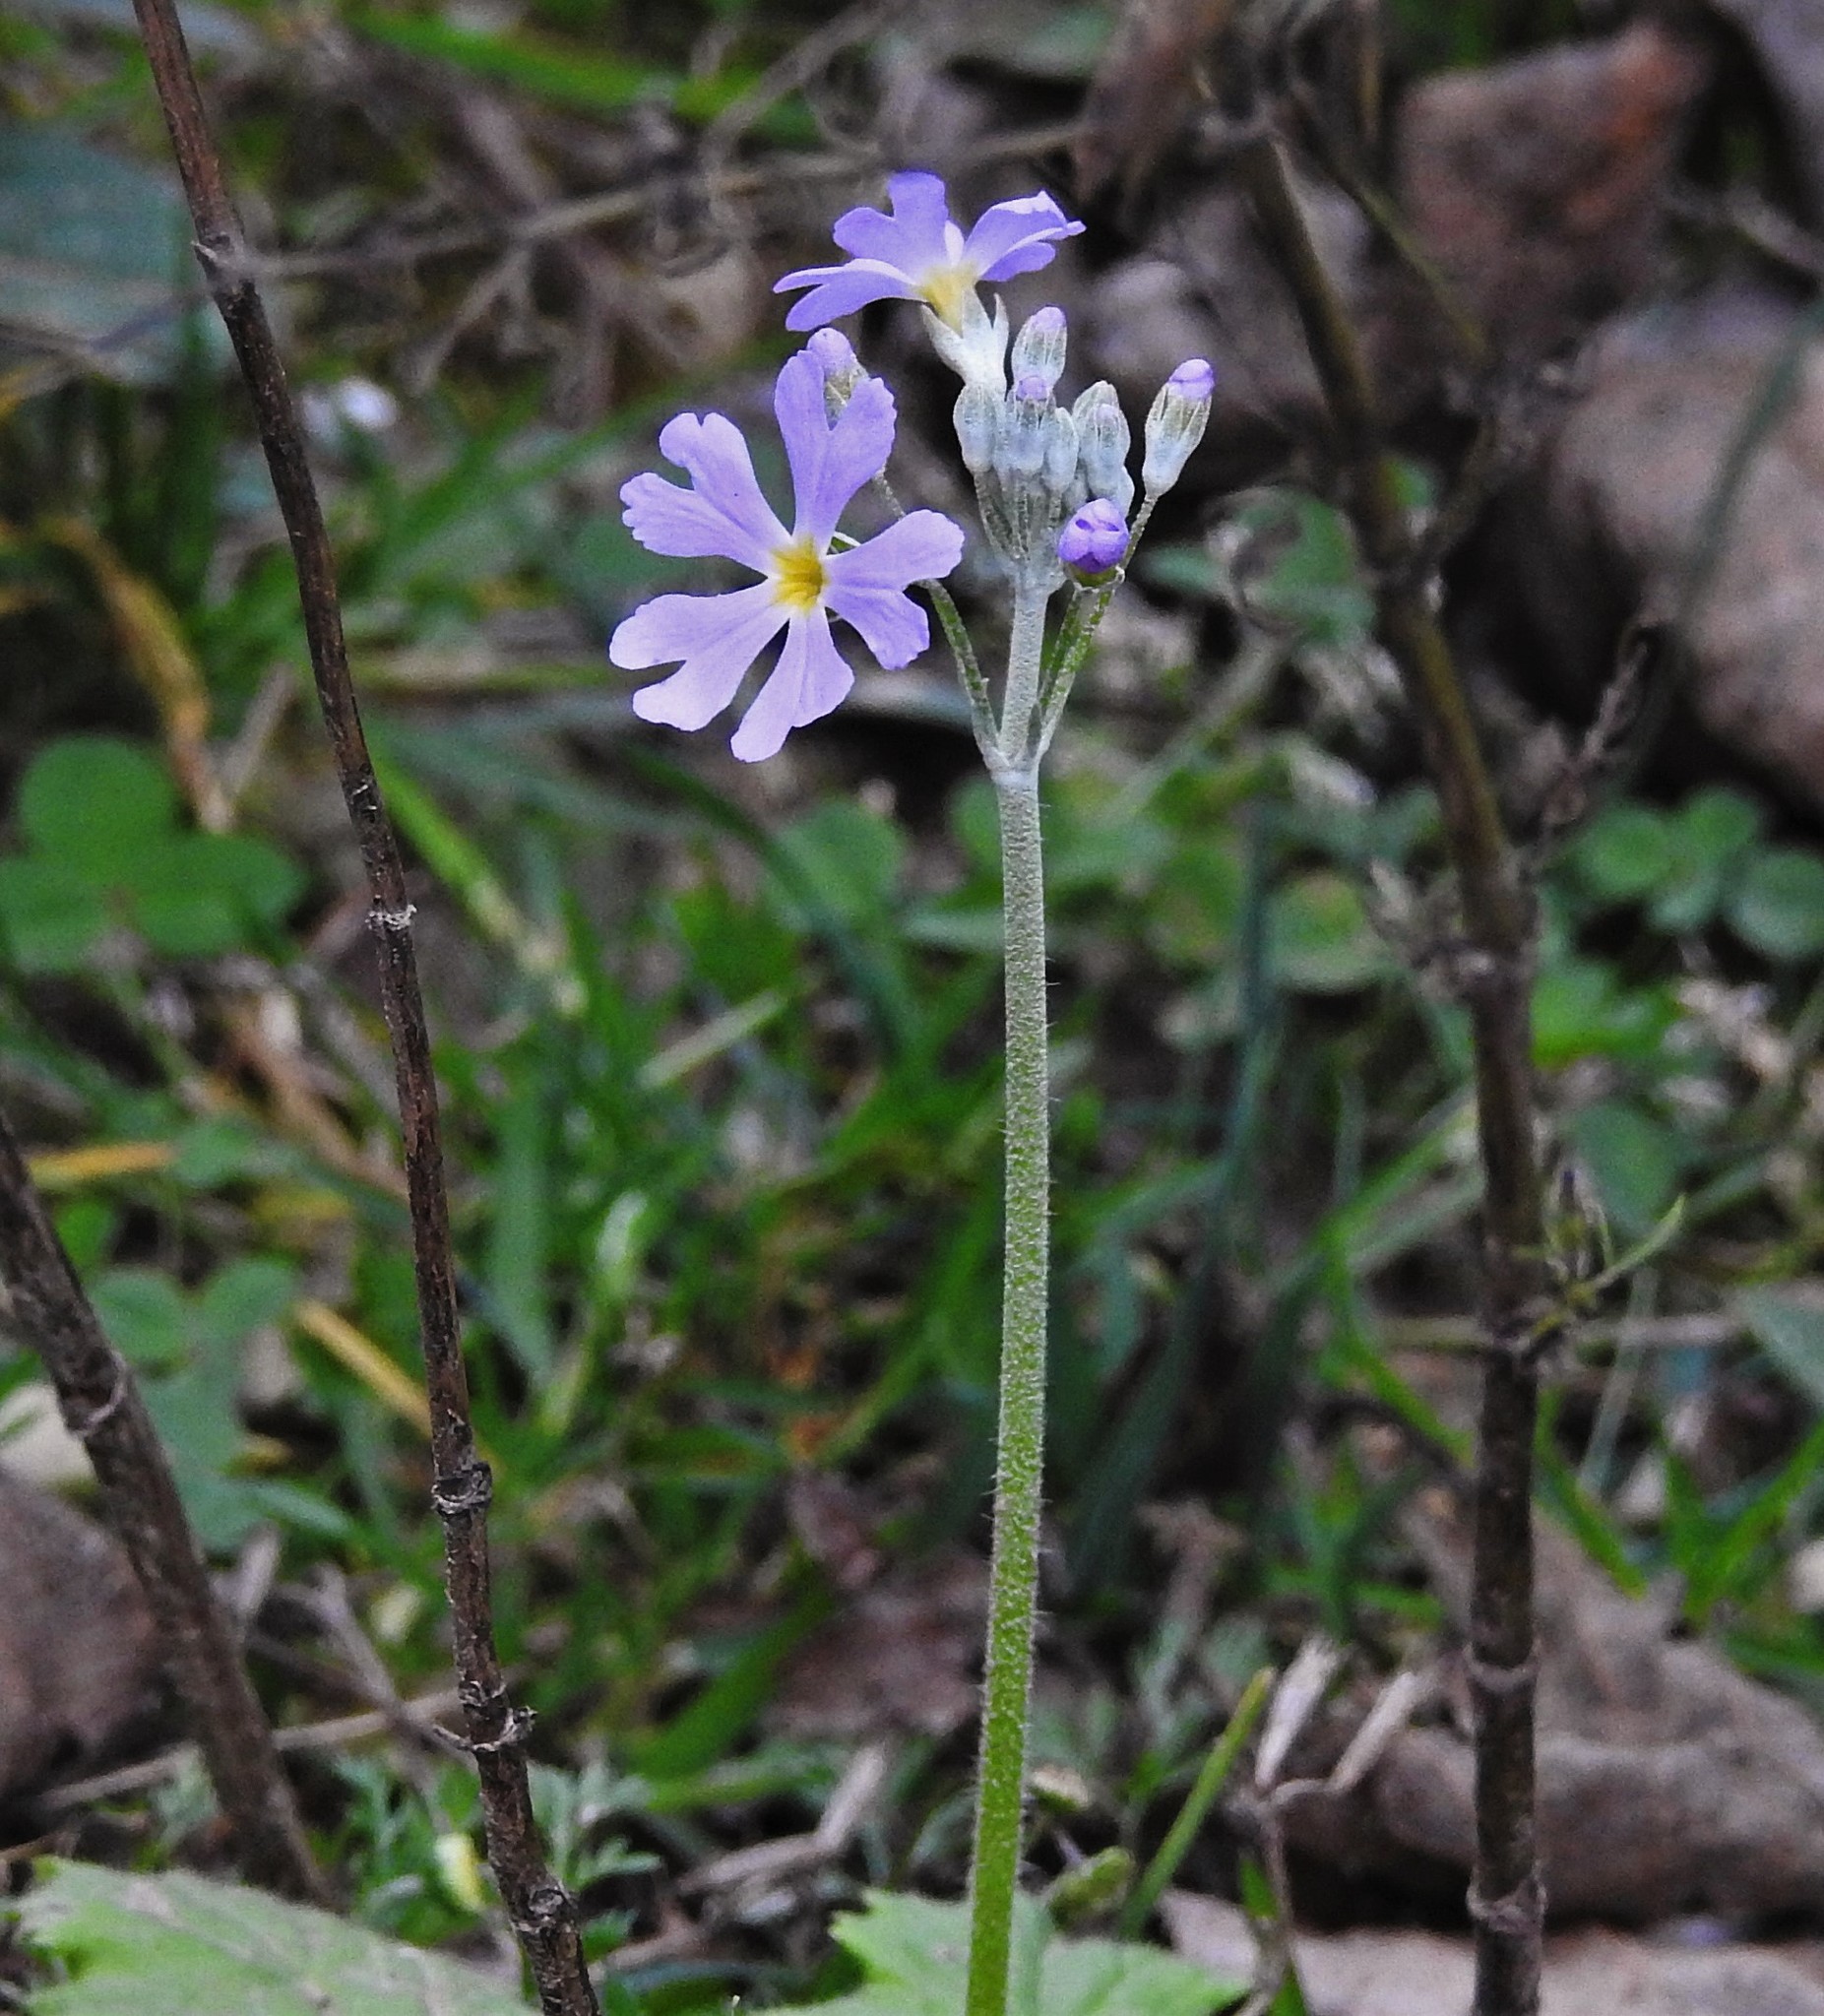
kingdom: Plantae
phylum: Tracheophyta
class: Magnoliopsida
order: Ericales
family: Primulaceae
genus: Primula
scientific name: Primula malacoides
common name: Baby primrose
